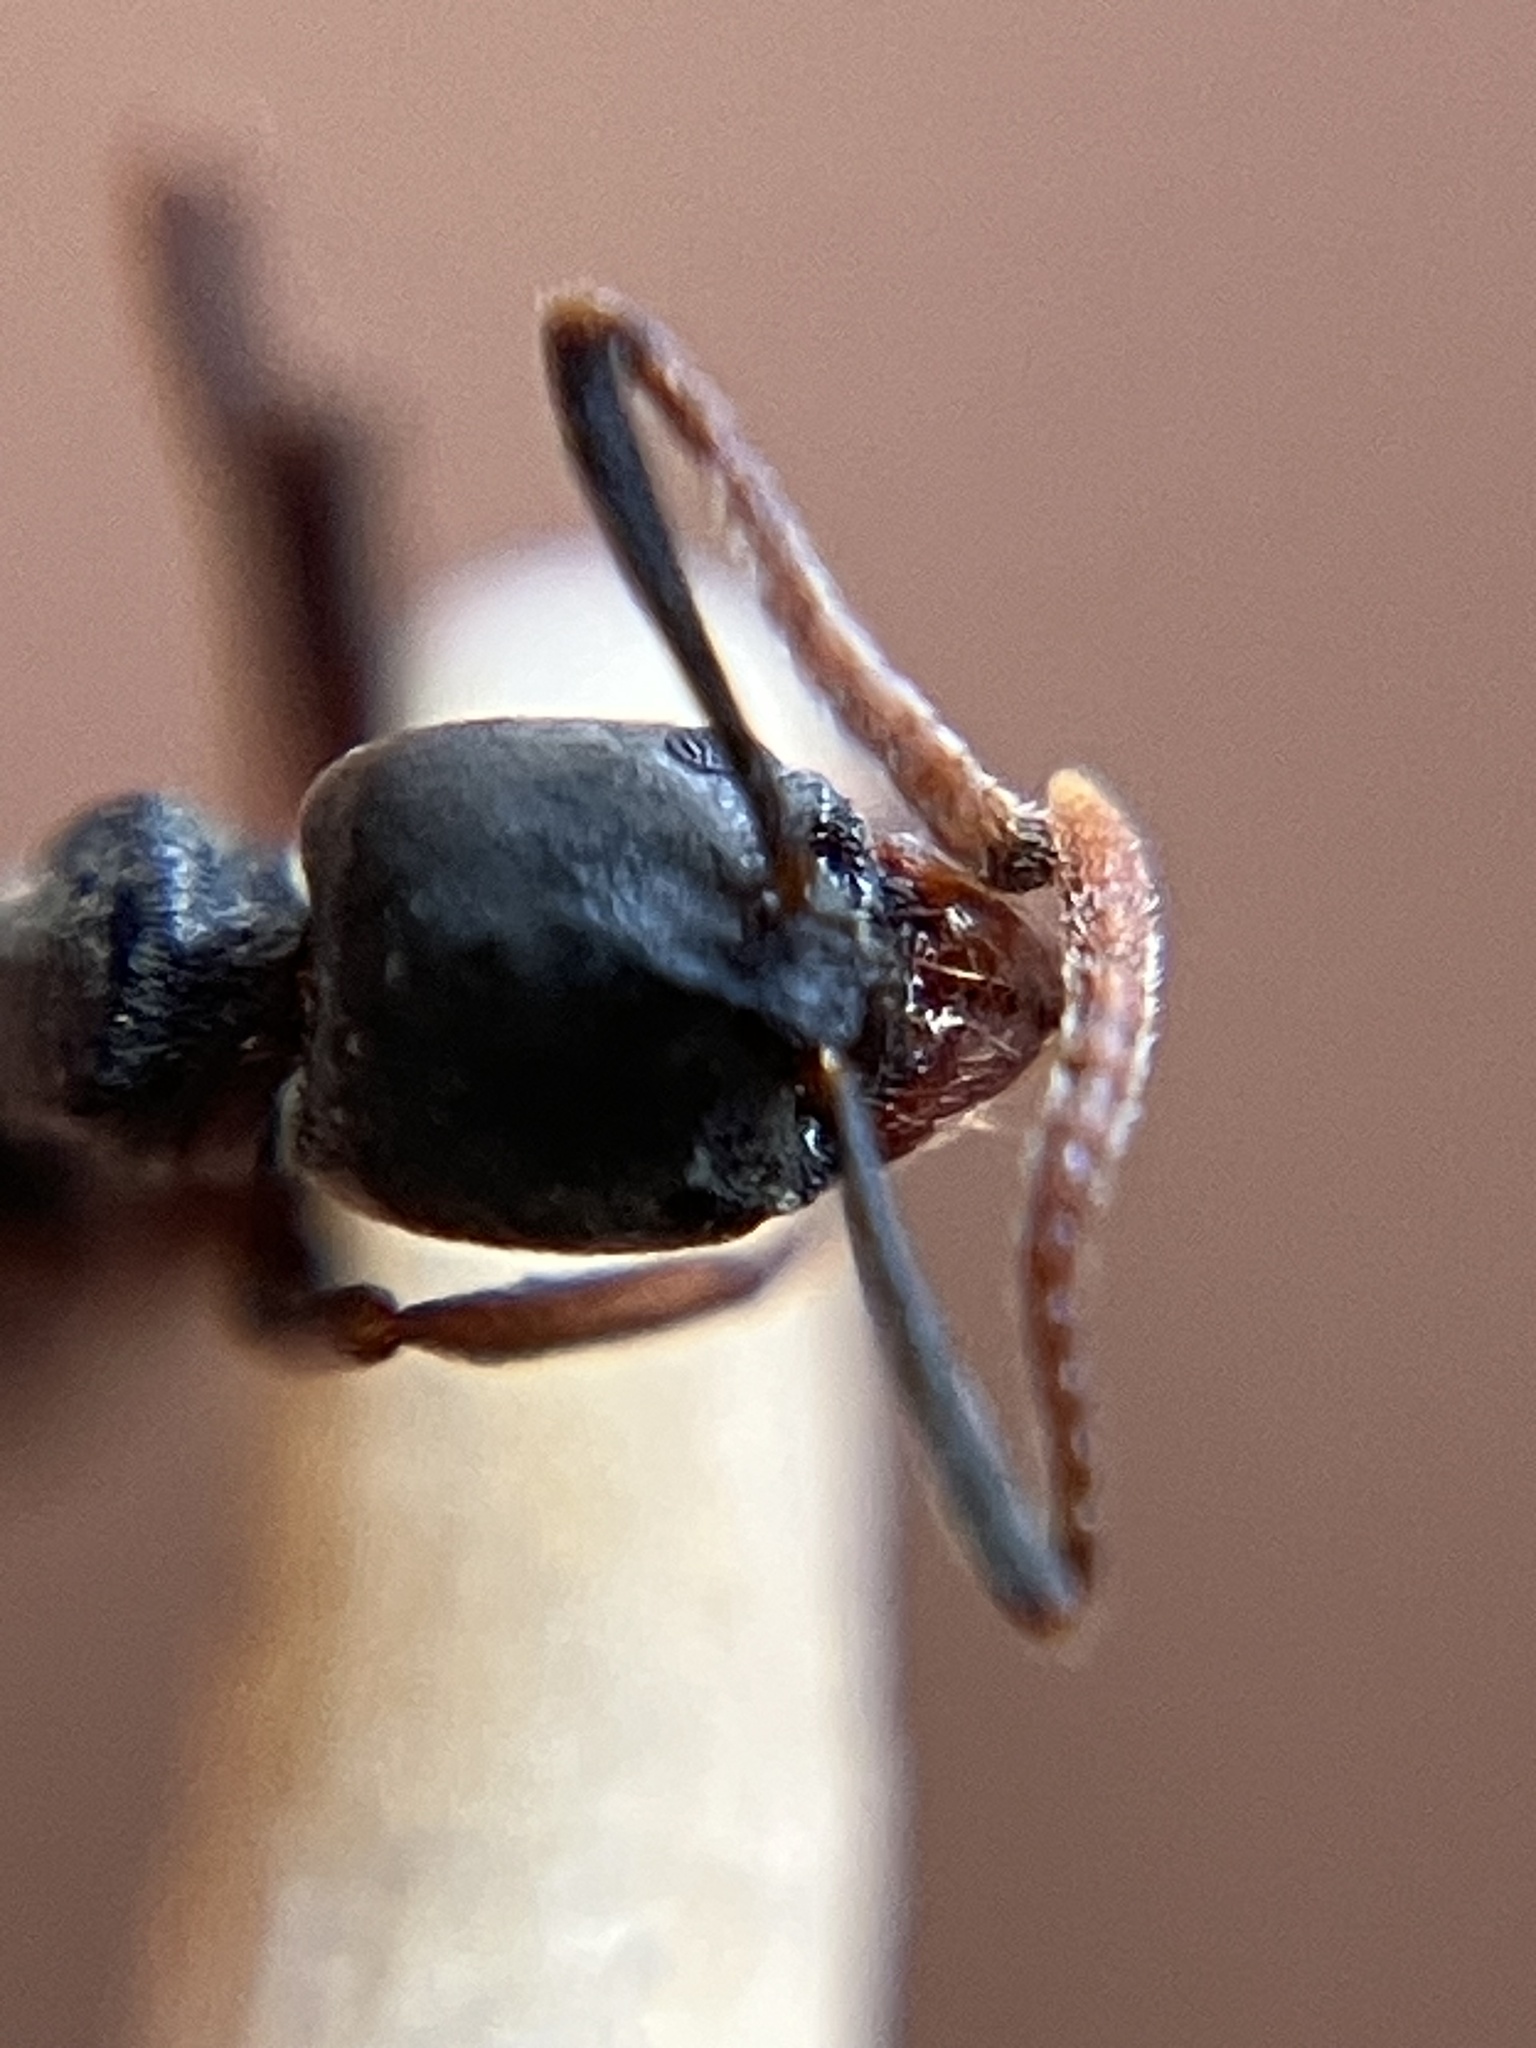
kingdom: Animalia
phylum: Arthropoda
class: Insecta
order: Hymenoptera
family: Formicidae
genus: Brachyponera
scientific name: Brachyponera obscurans
